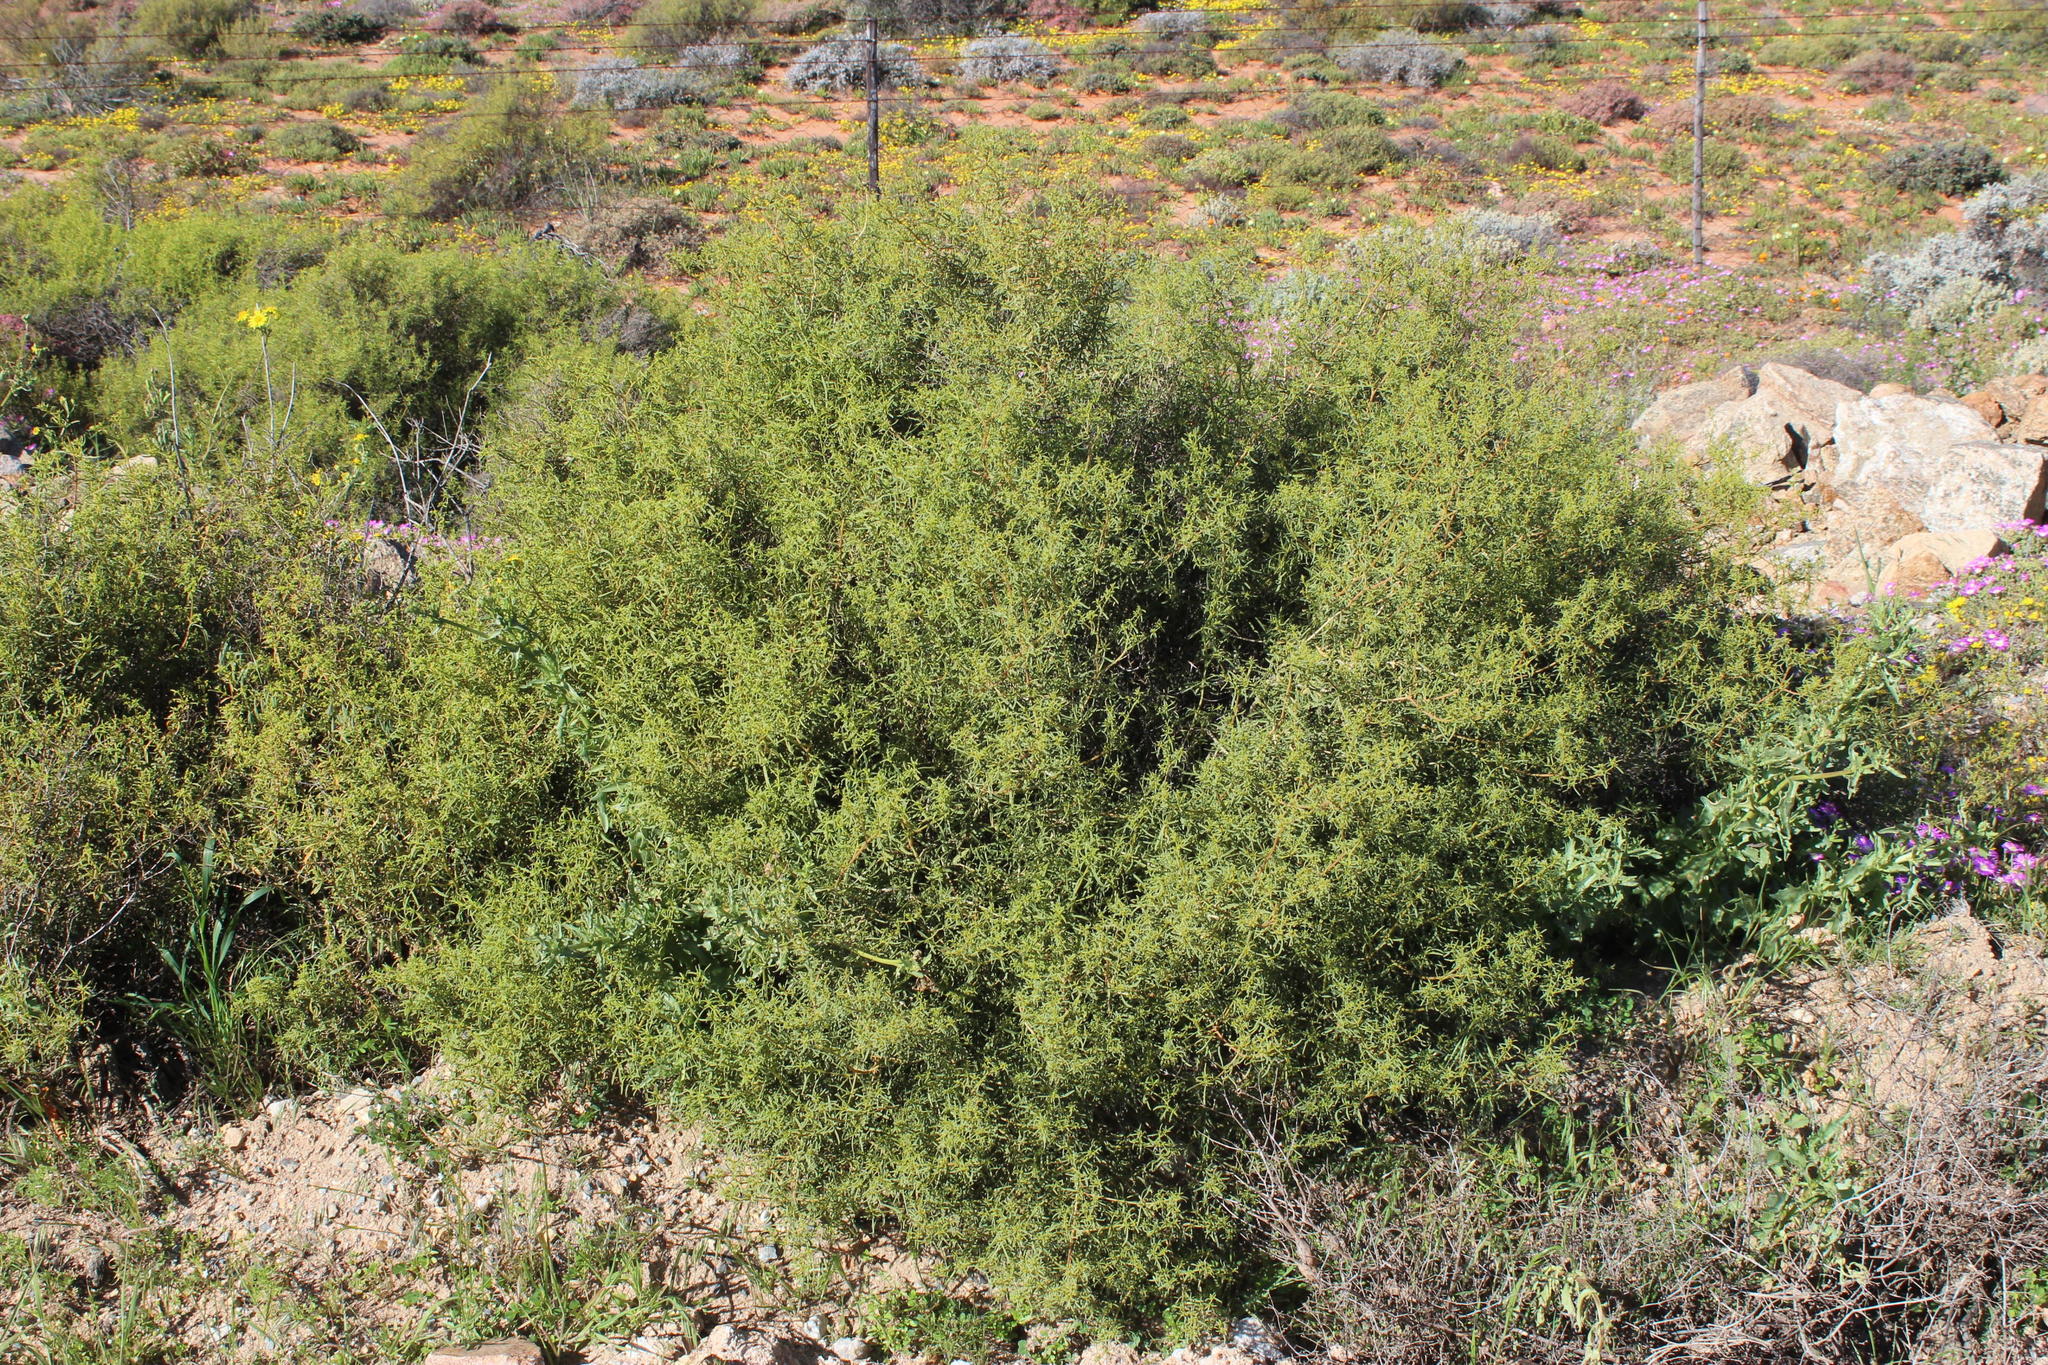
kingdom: Plantae
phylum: Tracheophyta
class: Magnoliopsida
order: Caryophyllales
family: Aizoaceae
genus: Aizoon
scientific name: Aizoon africanum
